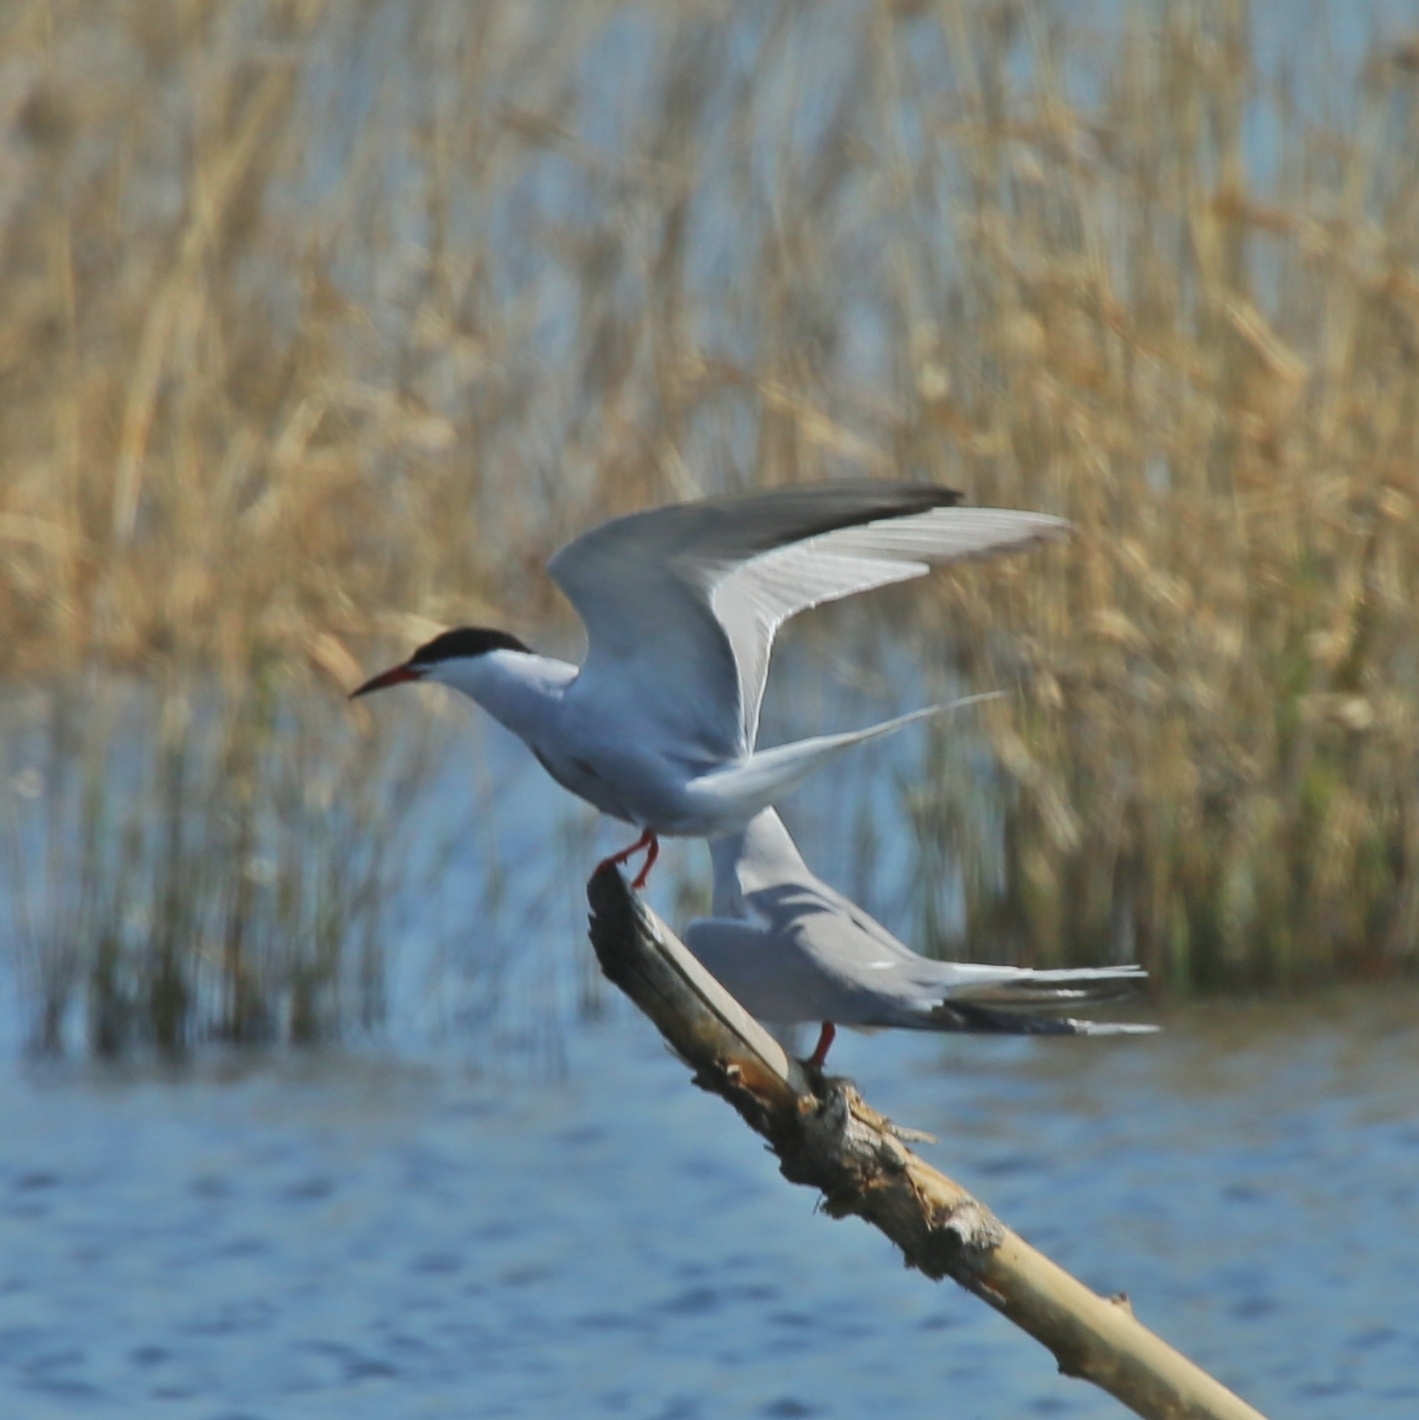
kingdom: Animalia
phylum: Chordata
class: Aves
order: Charadriiformes
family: Laridae
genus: Sterna
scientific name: Sterna hirundo
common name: Common tern
